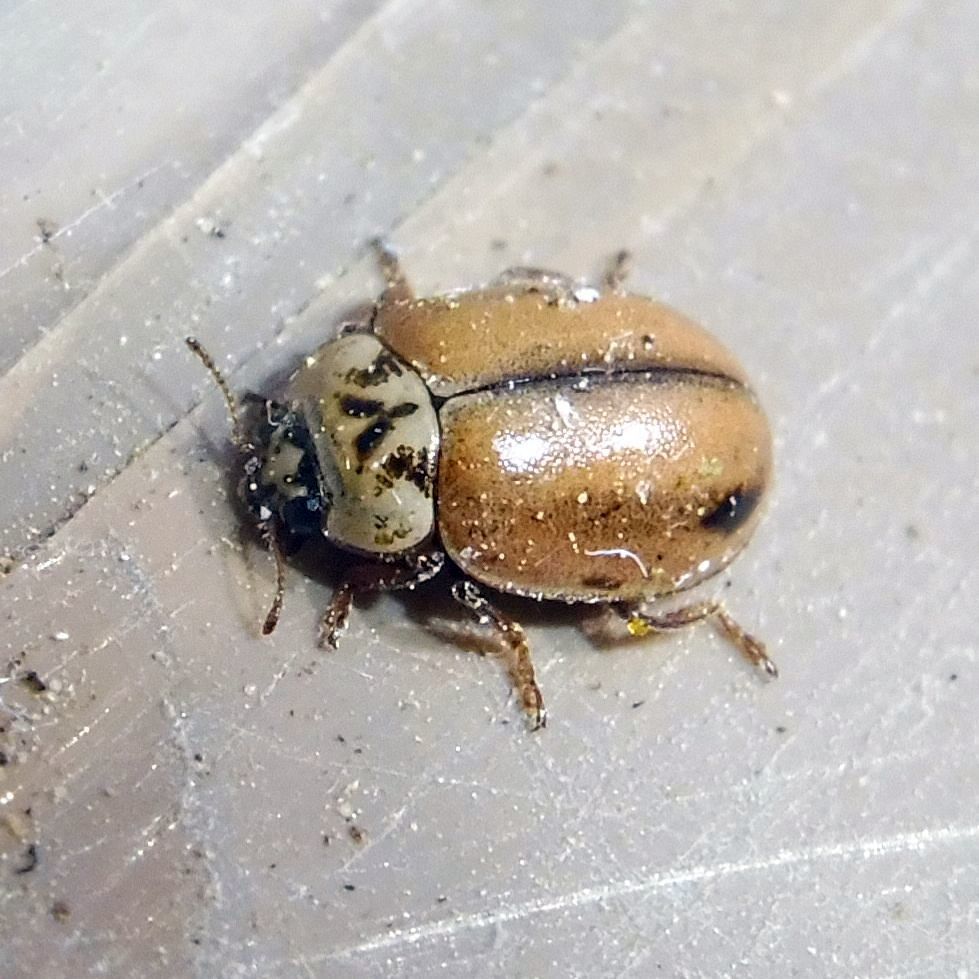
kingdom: Animalia
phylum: Arthropoda
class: Insecta
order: Coleoptera
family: Coccinellidae
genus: Aphidecta
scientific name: Aphidecta obliterata
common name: Larch ladybird
